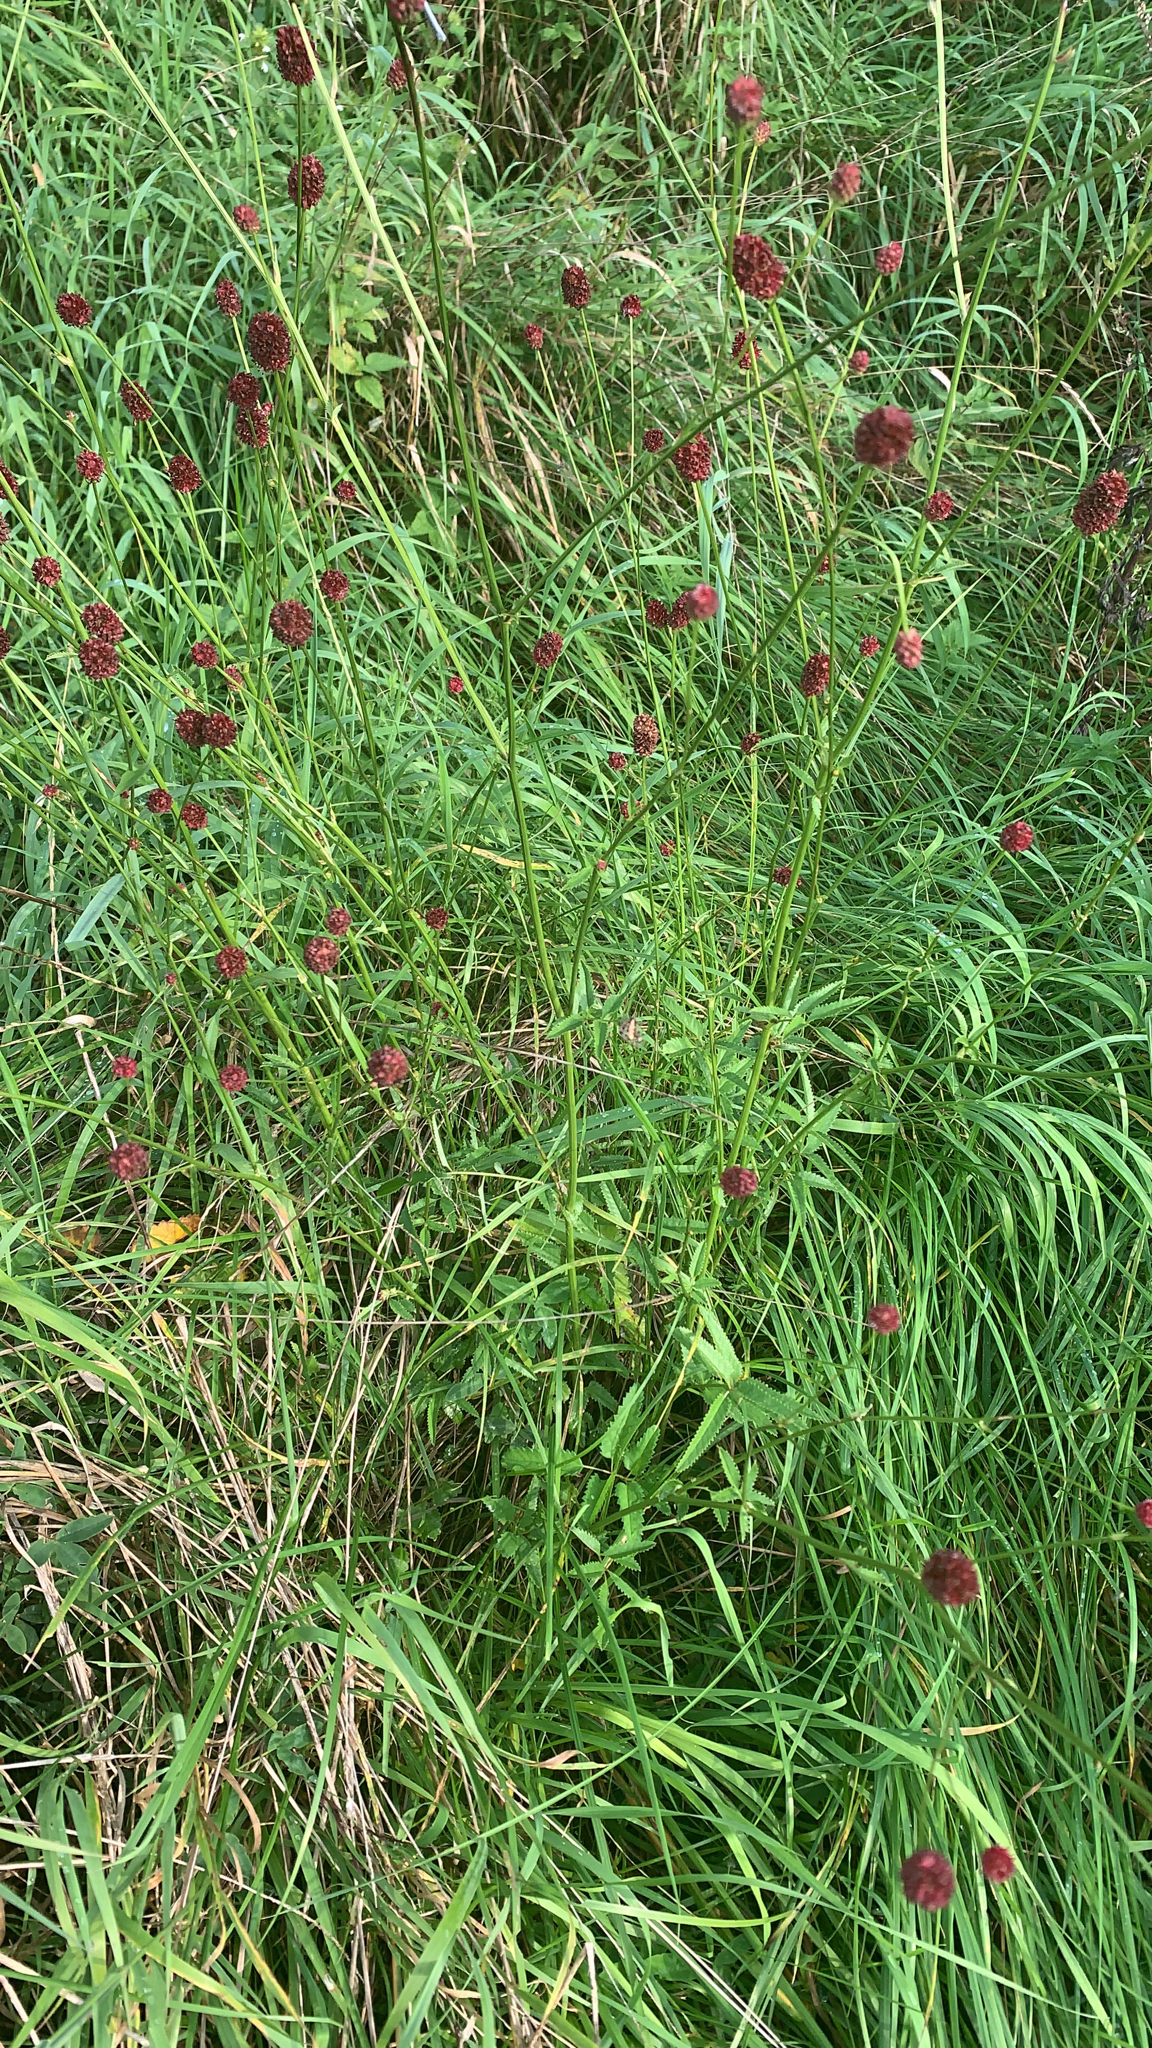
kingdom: Plantae
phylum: Tracheophyta
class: Magnoliopsida
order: Rosales
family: Rosaceae
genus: Sanguisorba
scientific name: Sanguisorba officinalis
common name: Great burnet
